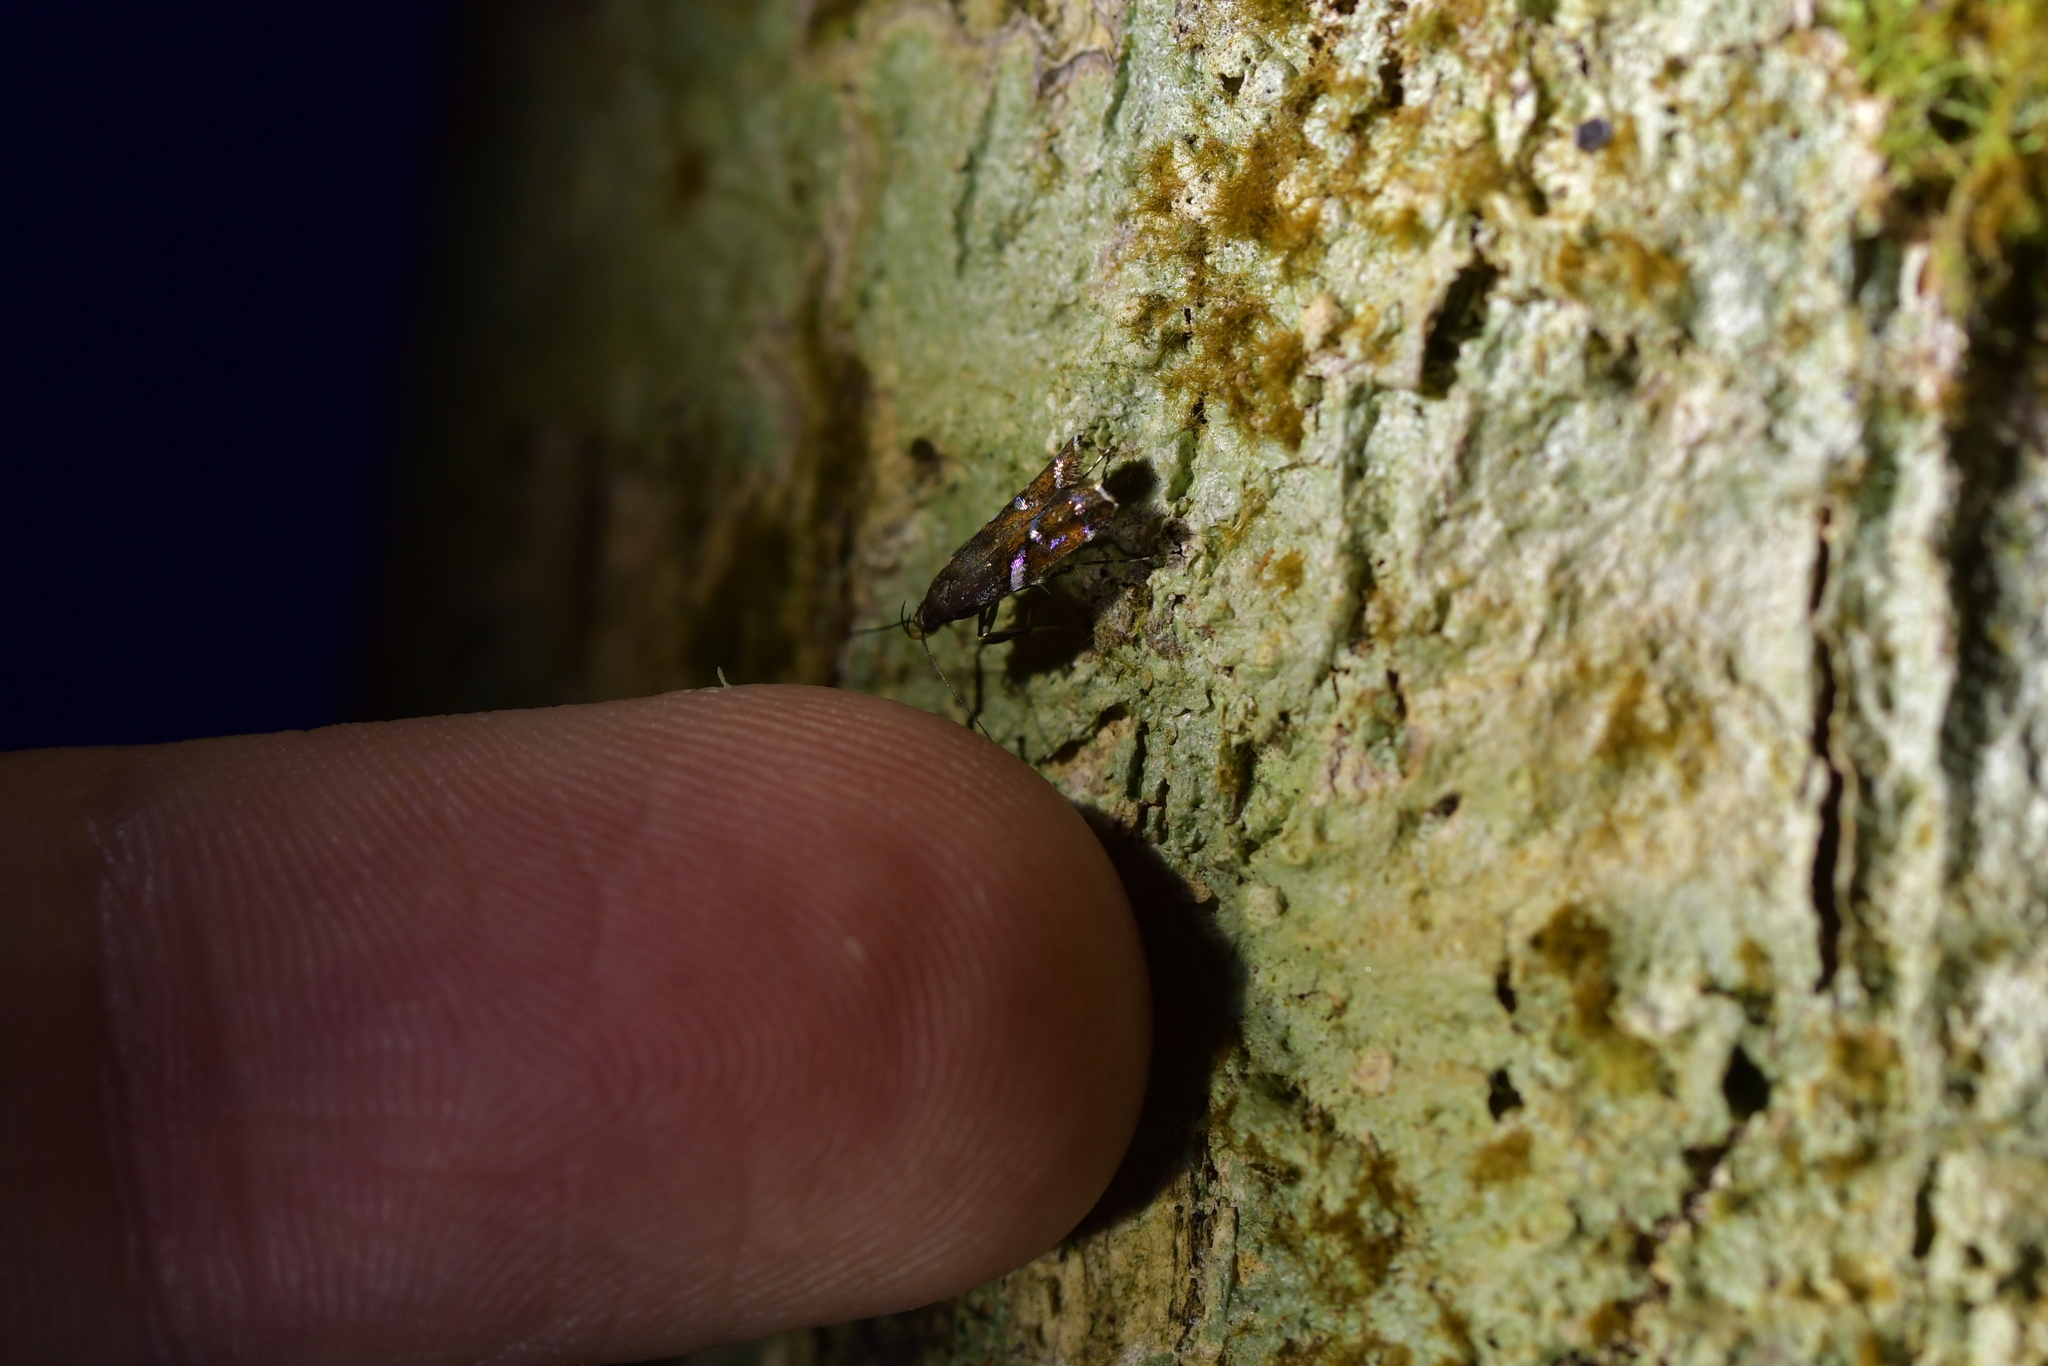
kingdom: Animalia
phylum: Arthropoda
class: Insecta
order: Lepidoptera
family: Depressariidae
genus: Compsistis
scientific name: Compsistis bifaciella
